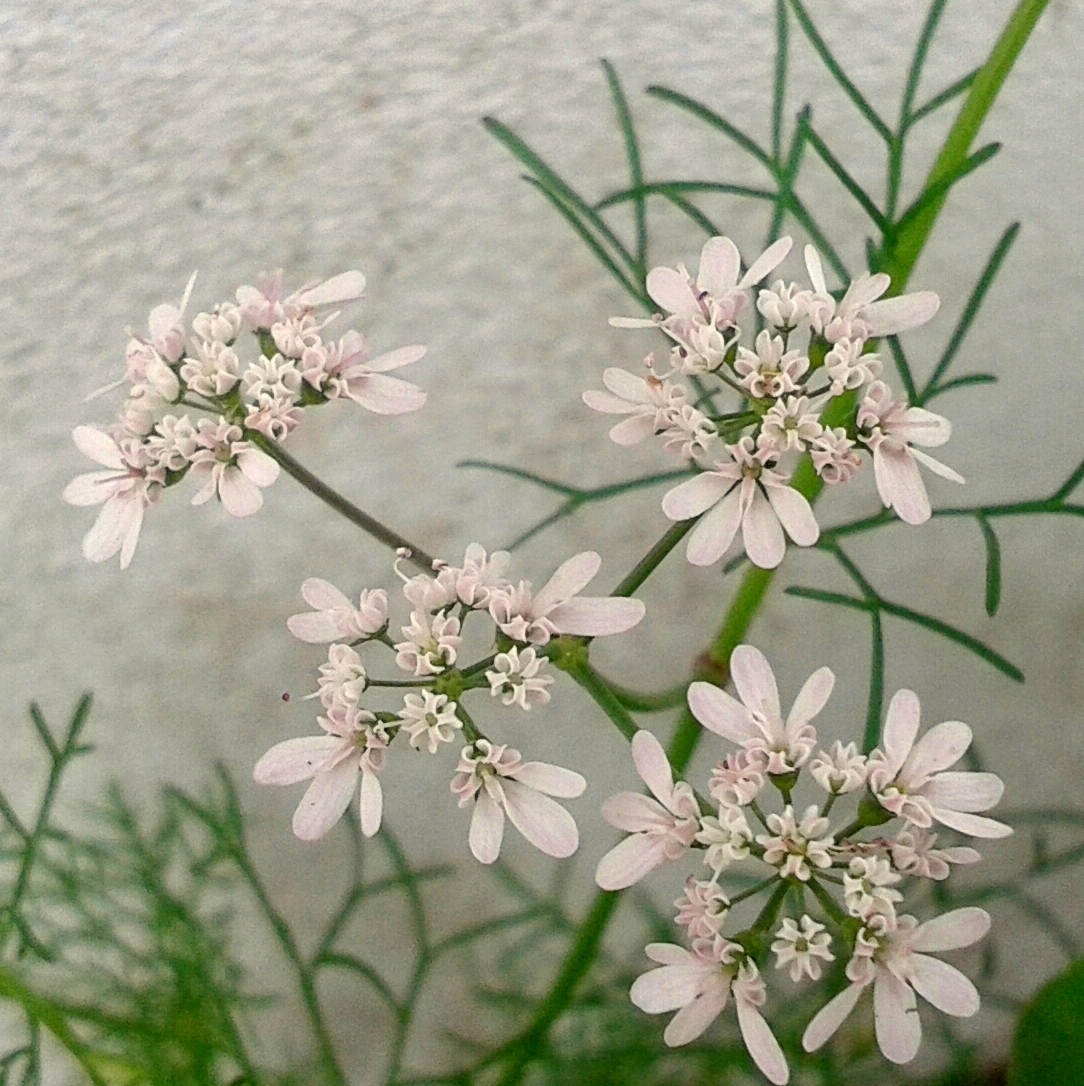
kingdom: Plantae
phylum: Tracheophyta
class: Magnoliopsida
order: Apiales
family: Apiaceae
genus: Coriandrum
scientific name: Coriandrum sativum
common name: Coriander
